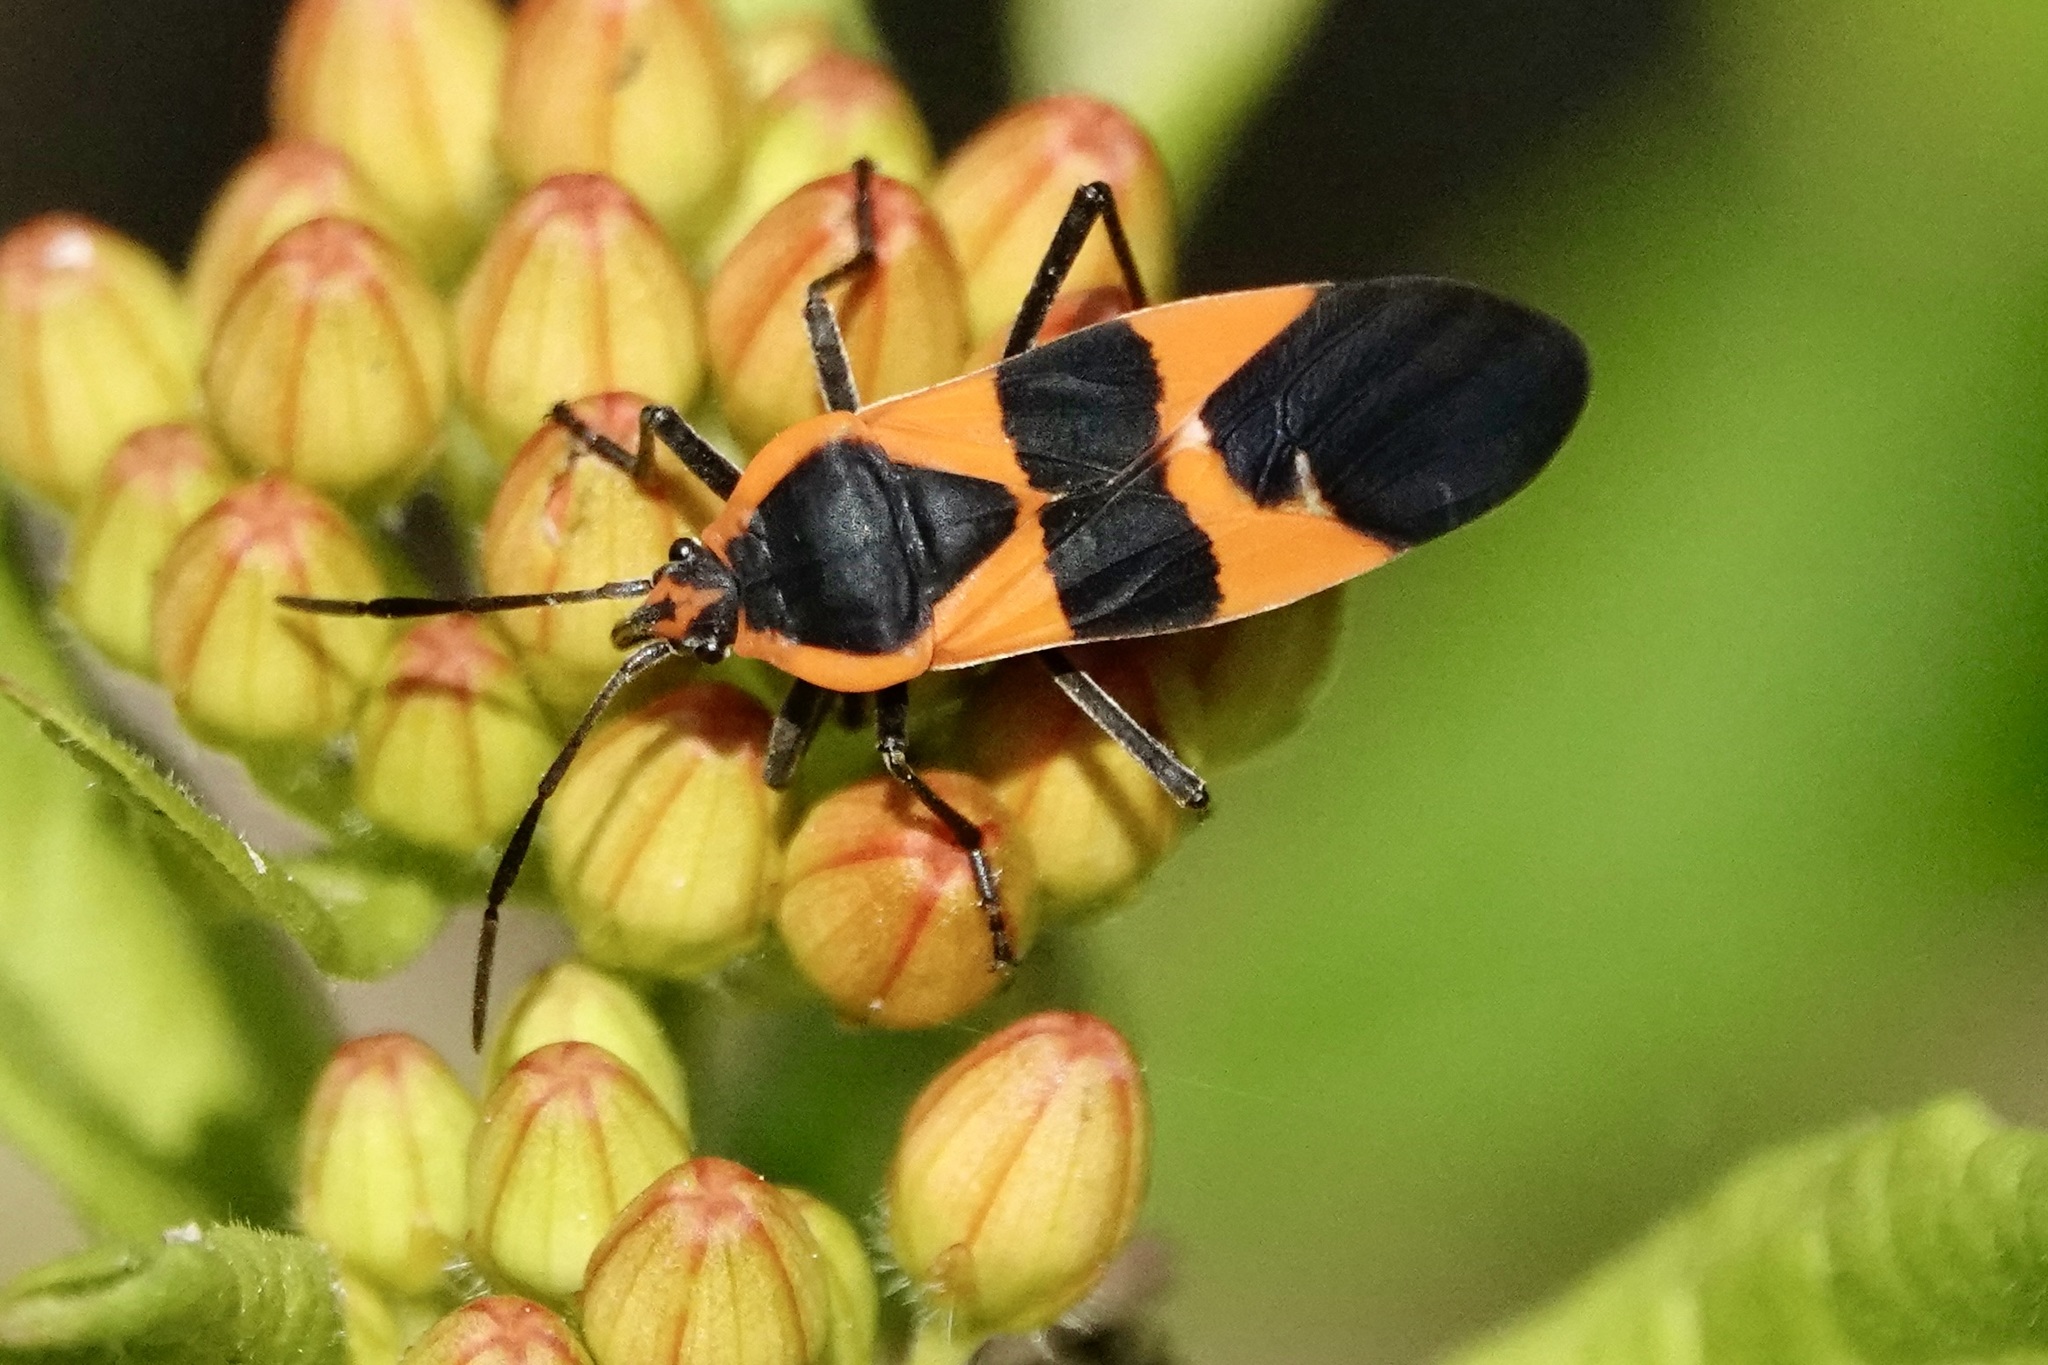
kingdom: Animalia
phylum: Arthropoda
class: Insecta
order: Hemiptera
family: Lygaeidae
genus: Oncopeltus
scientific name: Oncopeltus fasciatus
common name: Large milkweed bug
